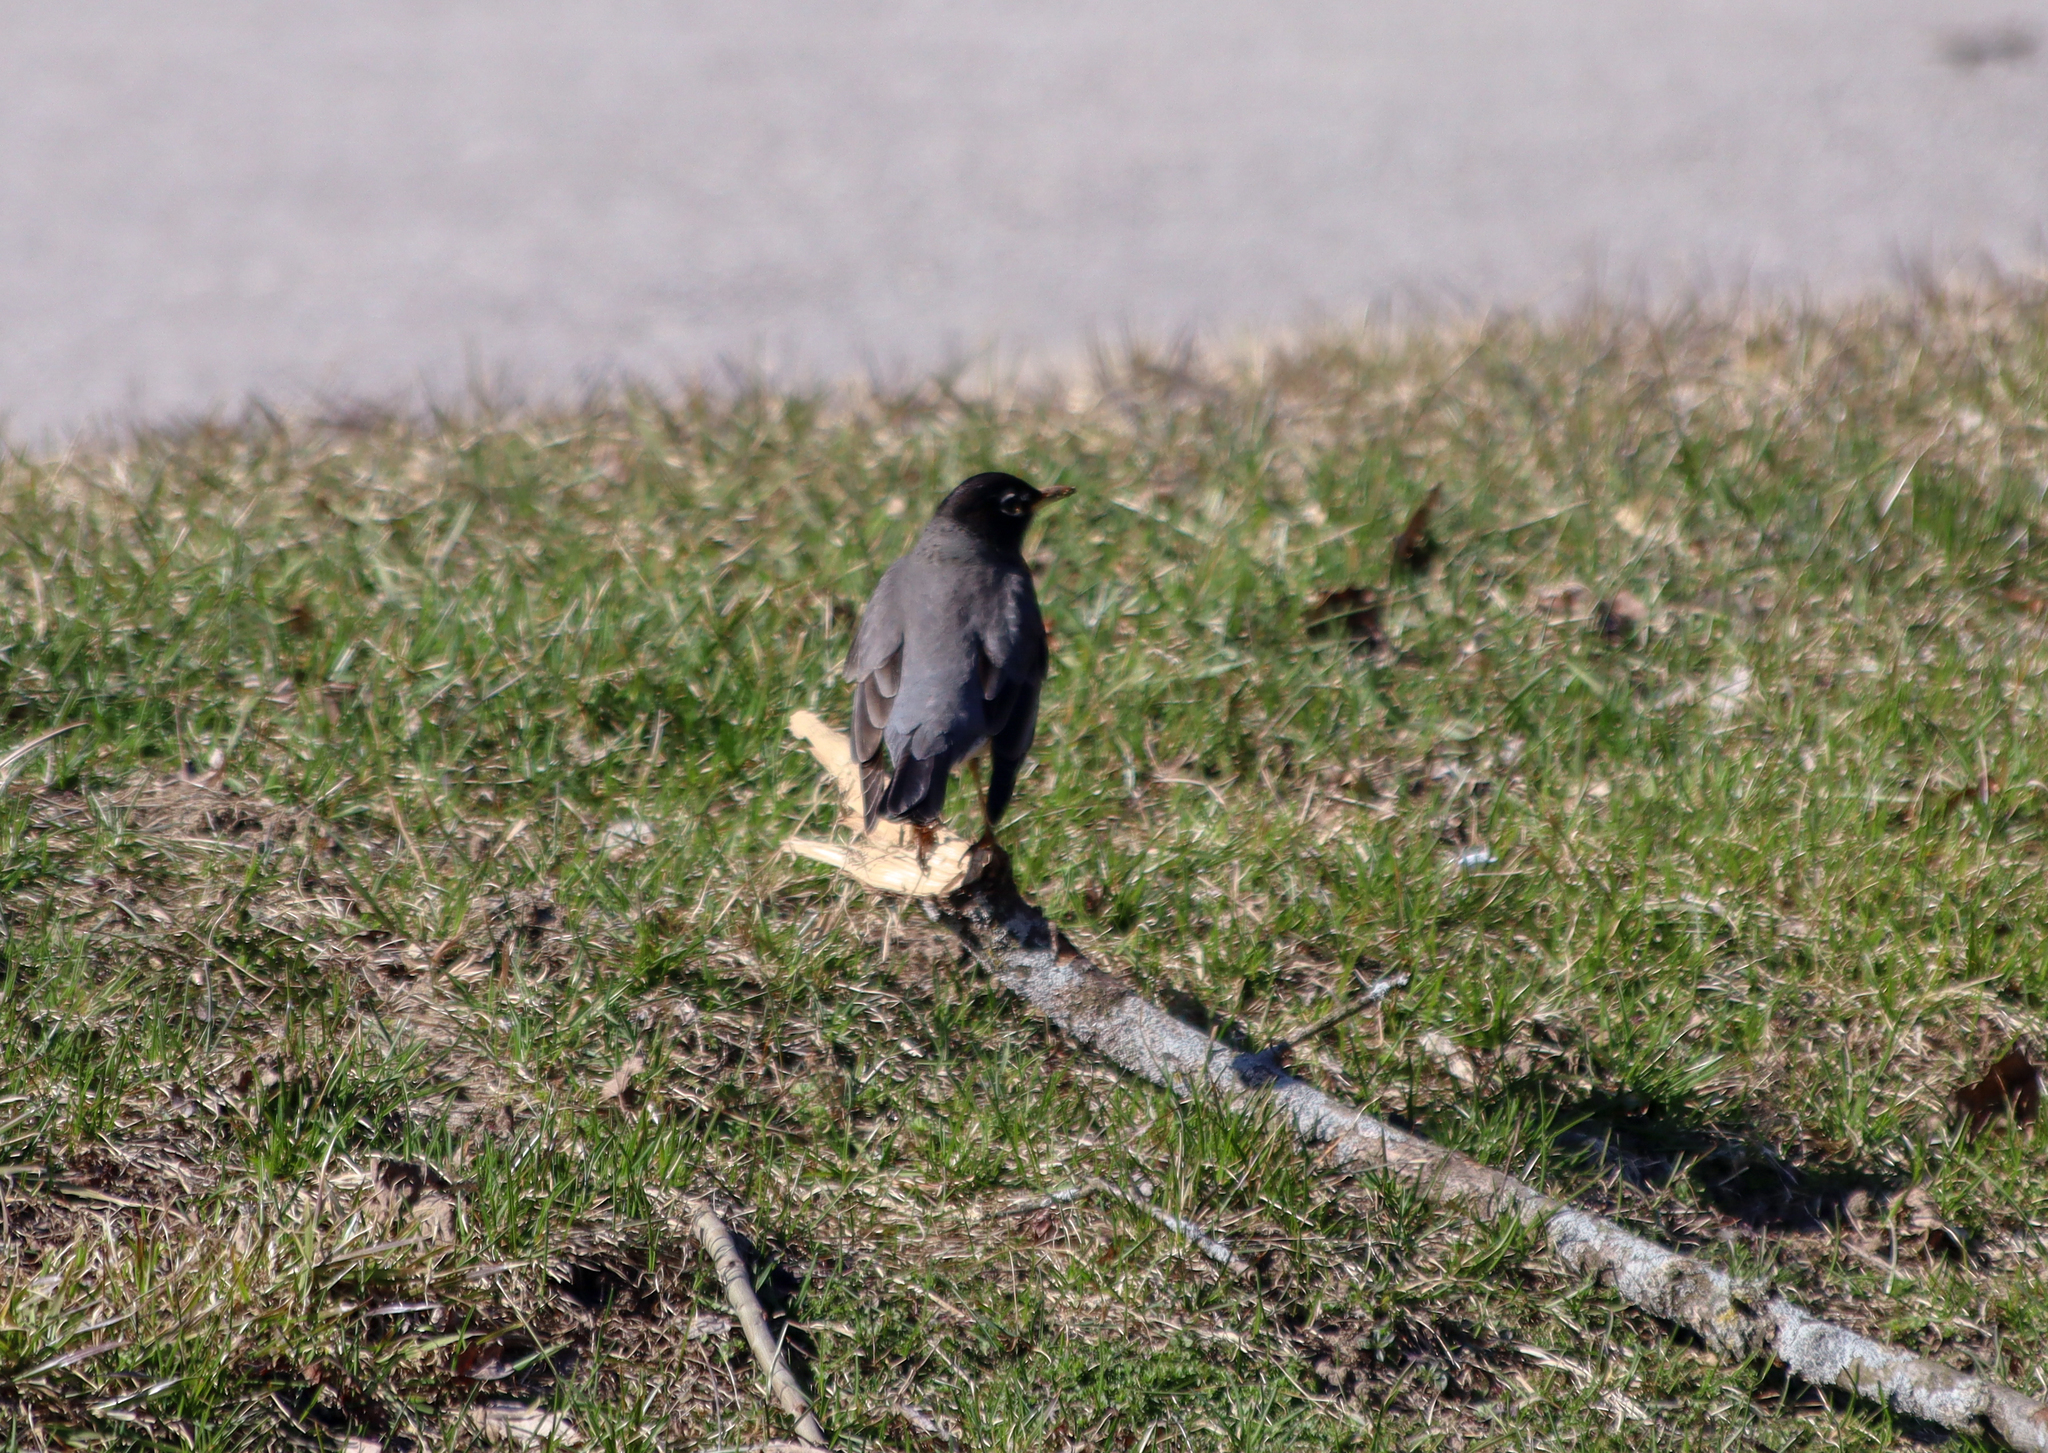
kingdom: Animalia
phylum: Chordata
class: Aves
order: Passeriformes
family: Turdidae
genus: Turdus
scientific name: Turdus migratorius
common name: American robin
